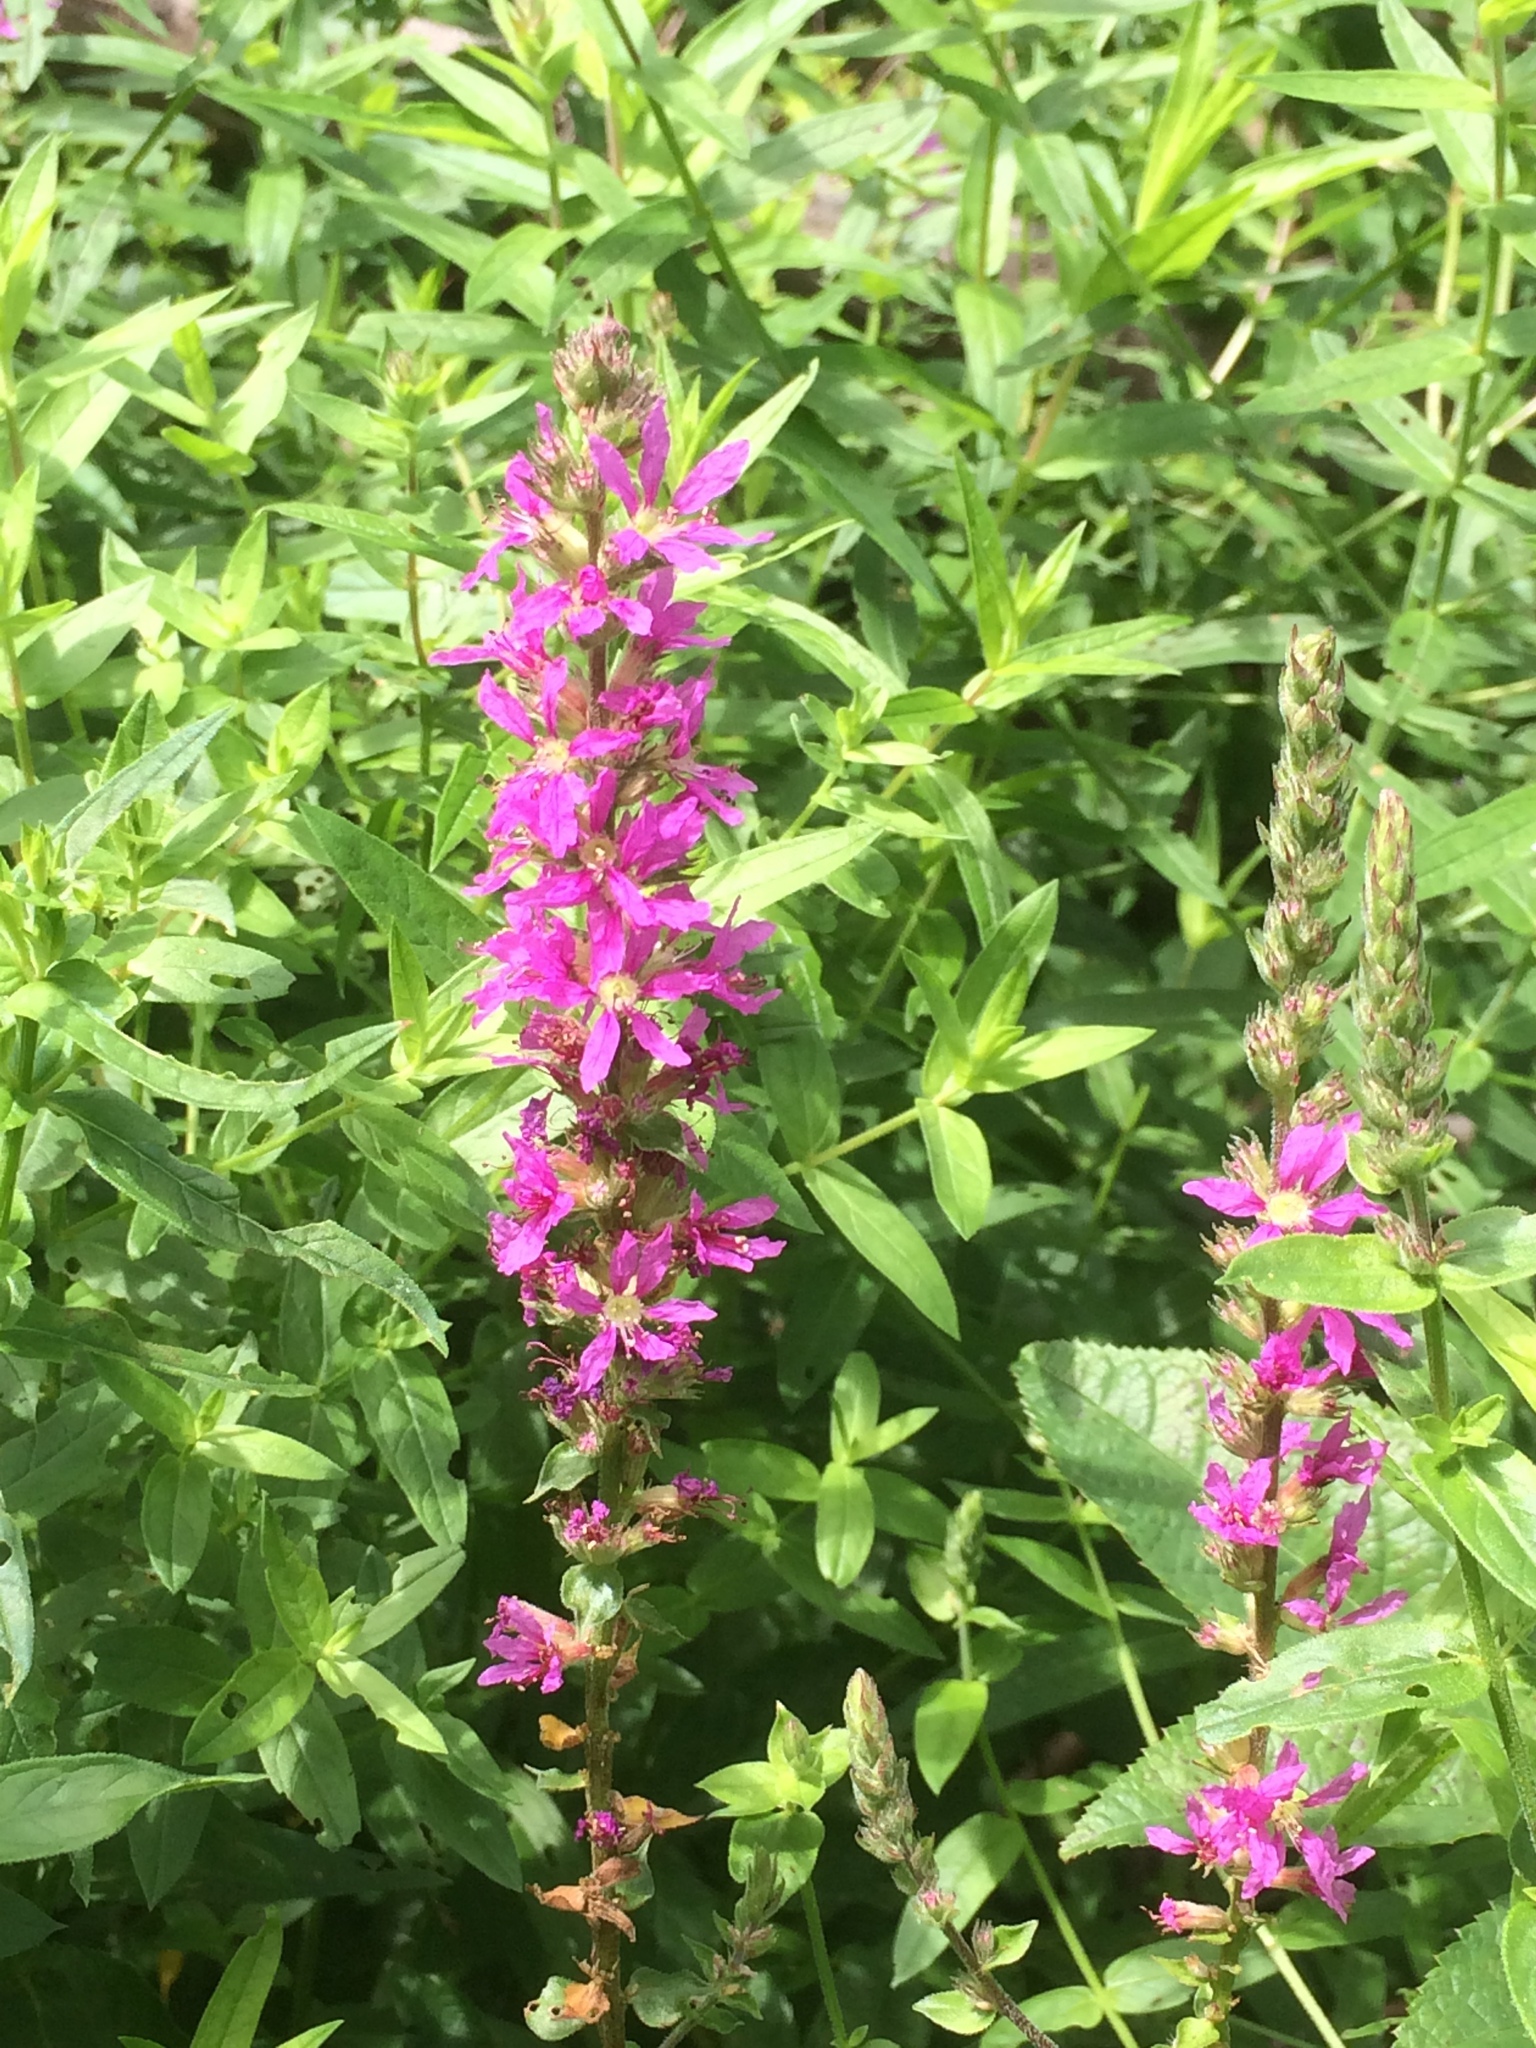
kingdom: Plantae
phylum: Tracheophyta
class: Magnoliopsida
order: Myrtales
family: Lythraceae
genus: Lythrum
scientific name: Lythrum salicaria
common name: Purple loosestrife
